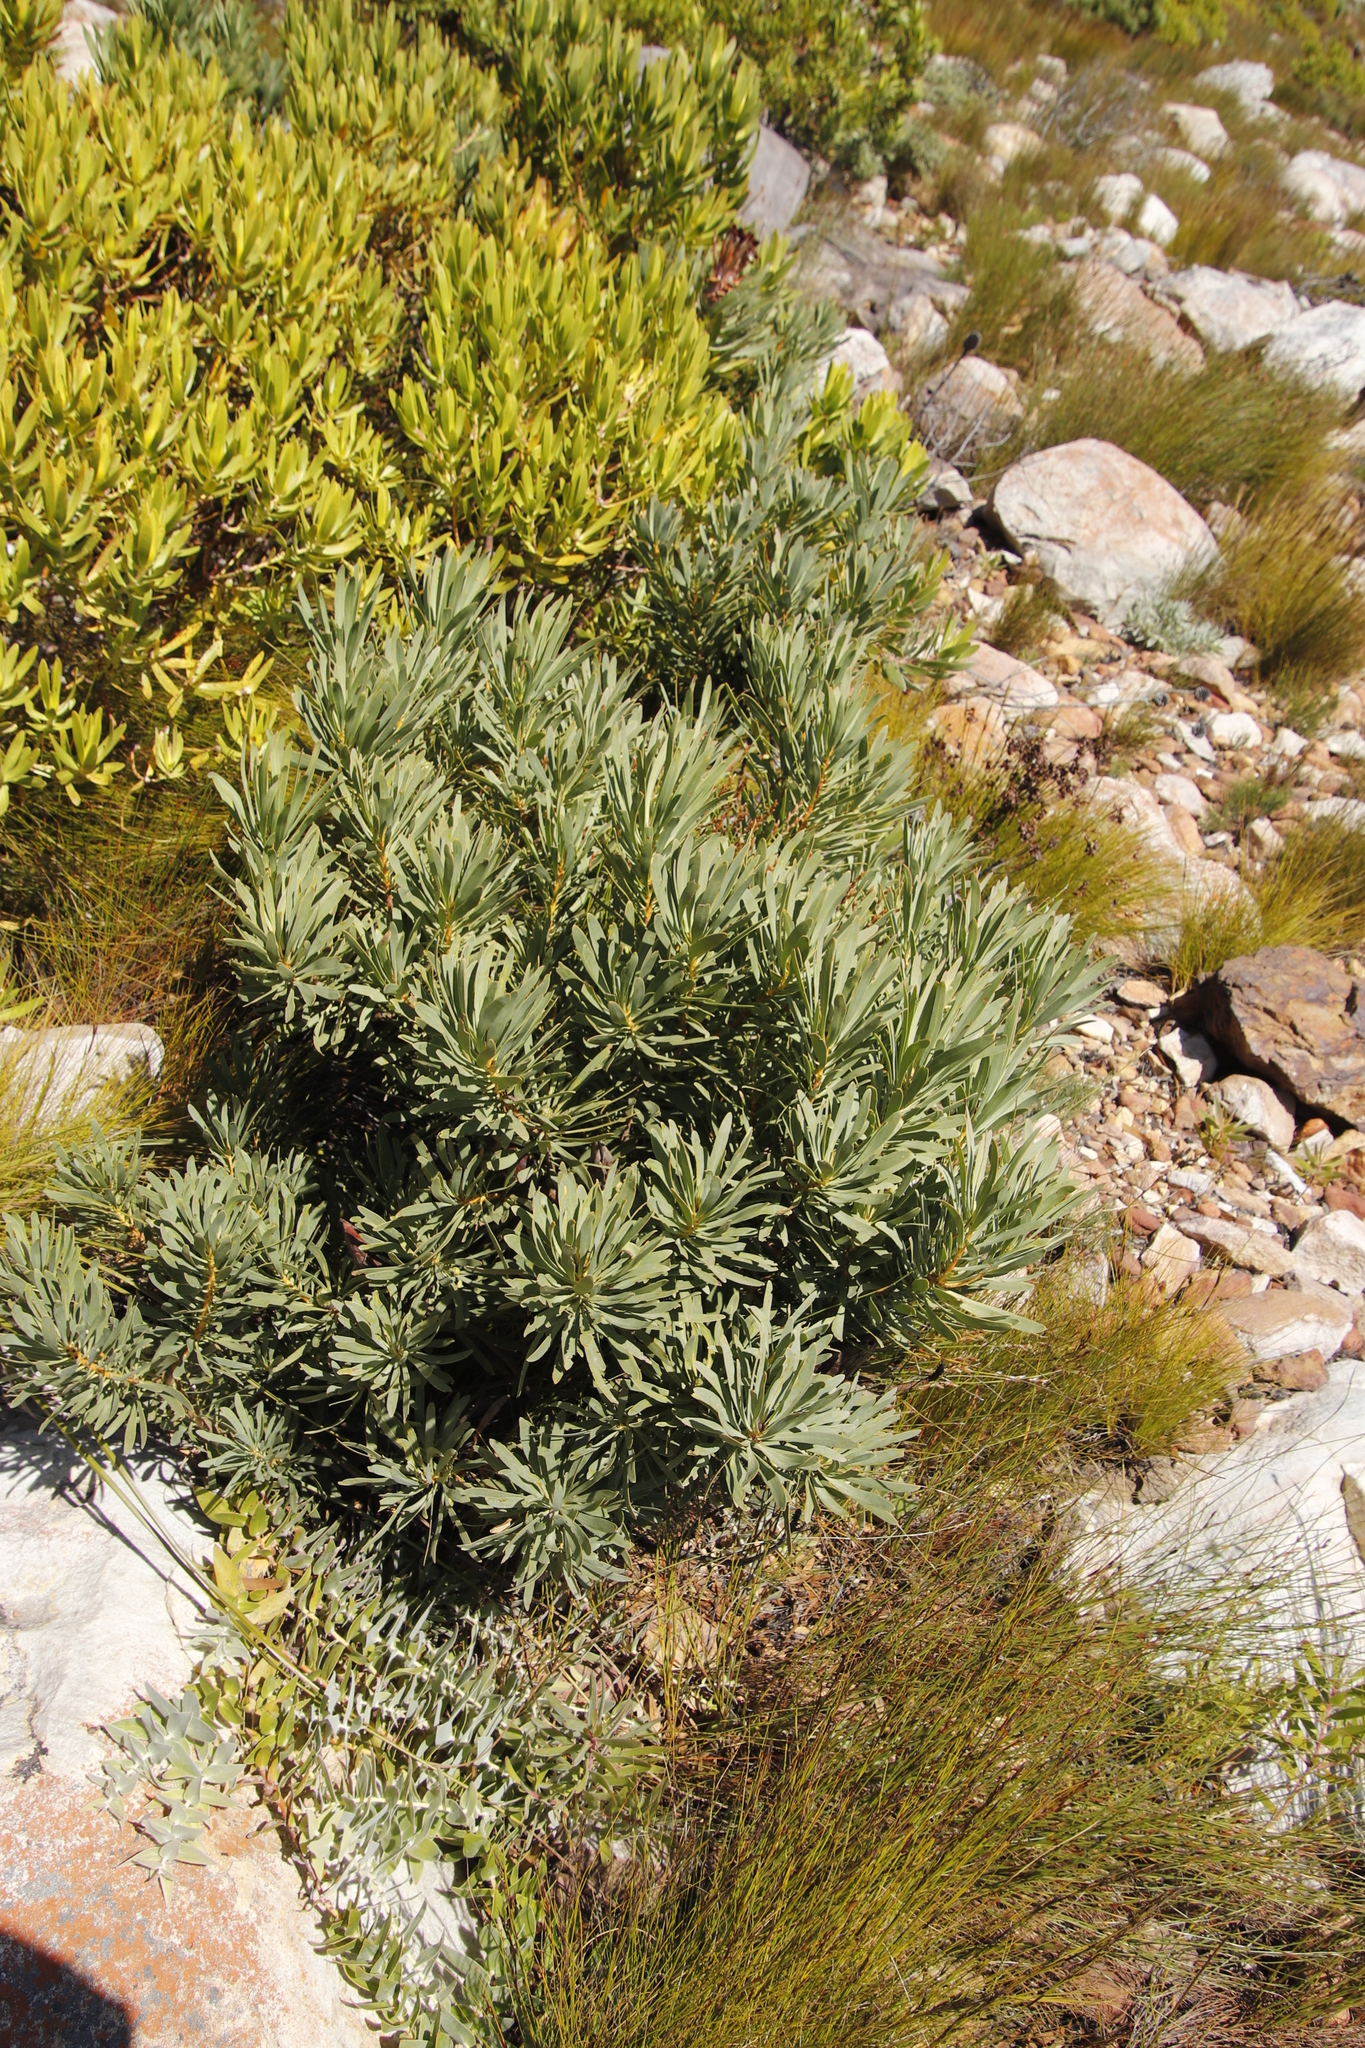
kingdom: Plantae
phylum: Tracheophyta
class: Magnoliopsida
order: Proteales
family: Proteaceae
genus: Protea
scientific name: Protea repens
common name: Sugarbush
